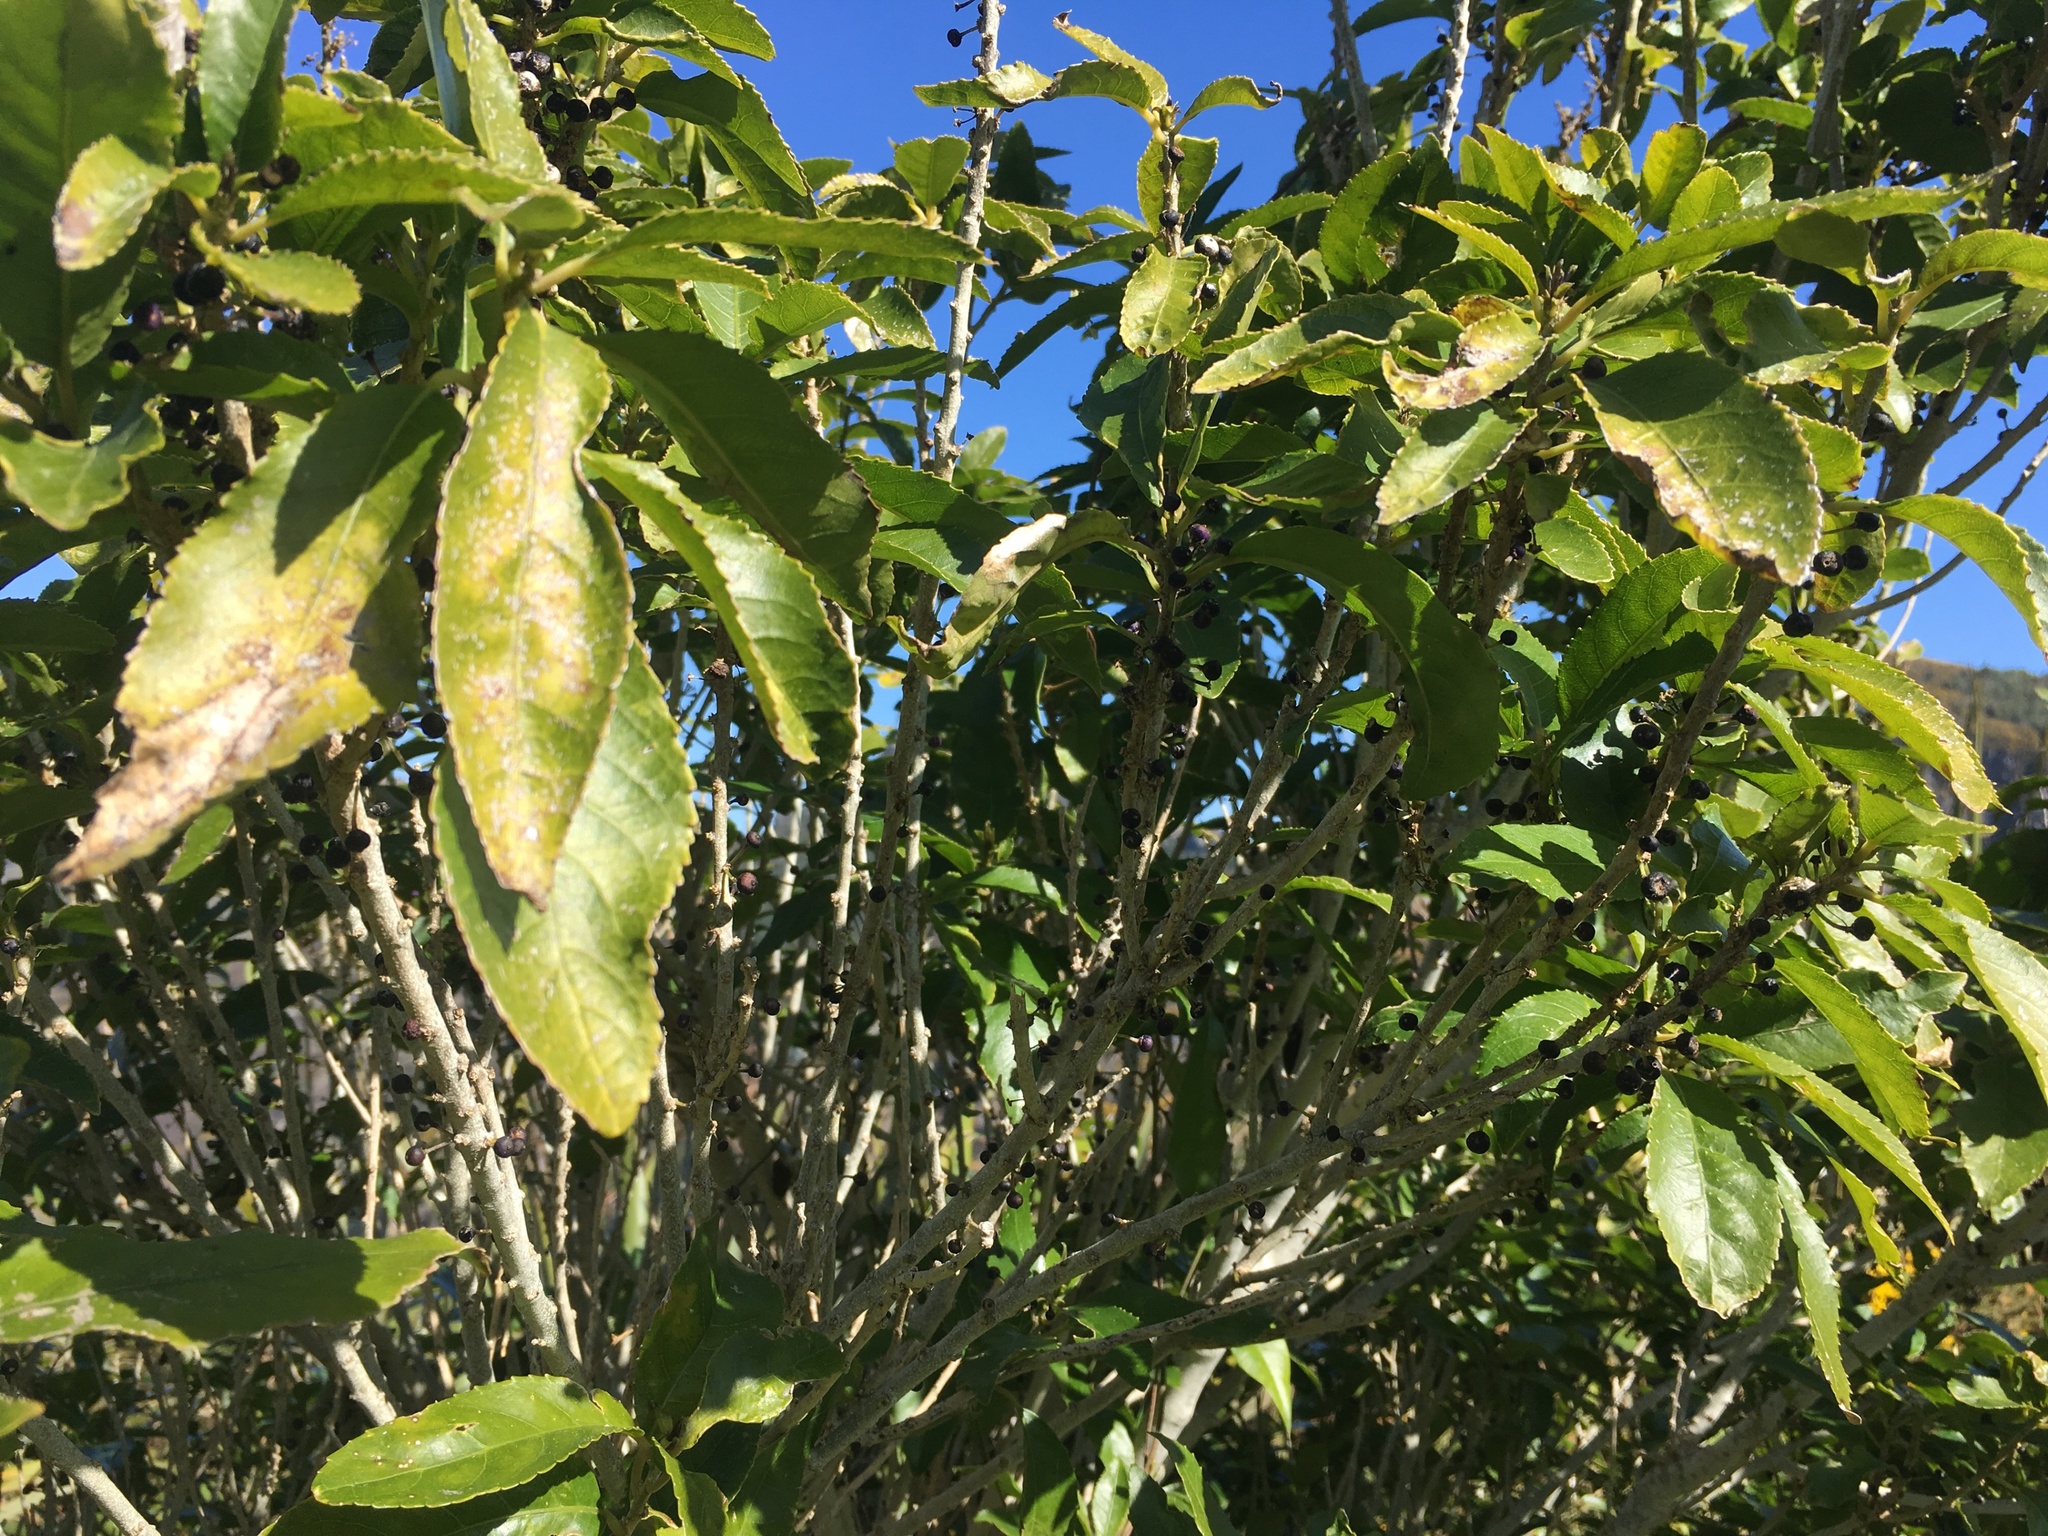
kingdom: Plantae
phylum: Tracheophyta
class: Magnoliopsida
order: Malpighiales
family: Violaceae
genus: Melicytus
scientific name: Melicytus ramiflorus
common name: Mahoe
